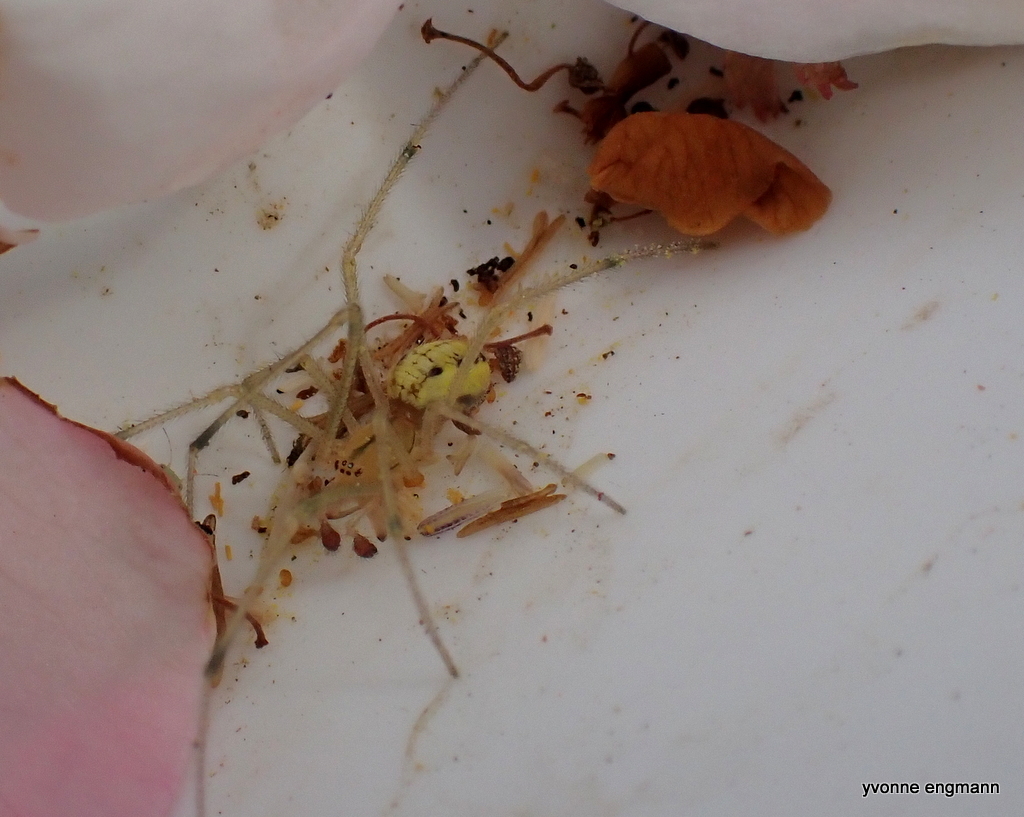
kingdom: Animalia
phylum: Arthropoda
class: Arachnida
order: Araneae
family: Theridiidae
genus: Enoplognatha
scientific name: Enoplognatha ovata
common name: Common candy-striped spider
